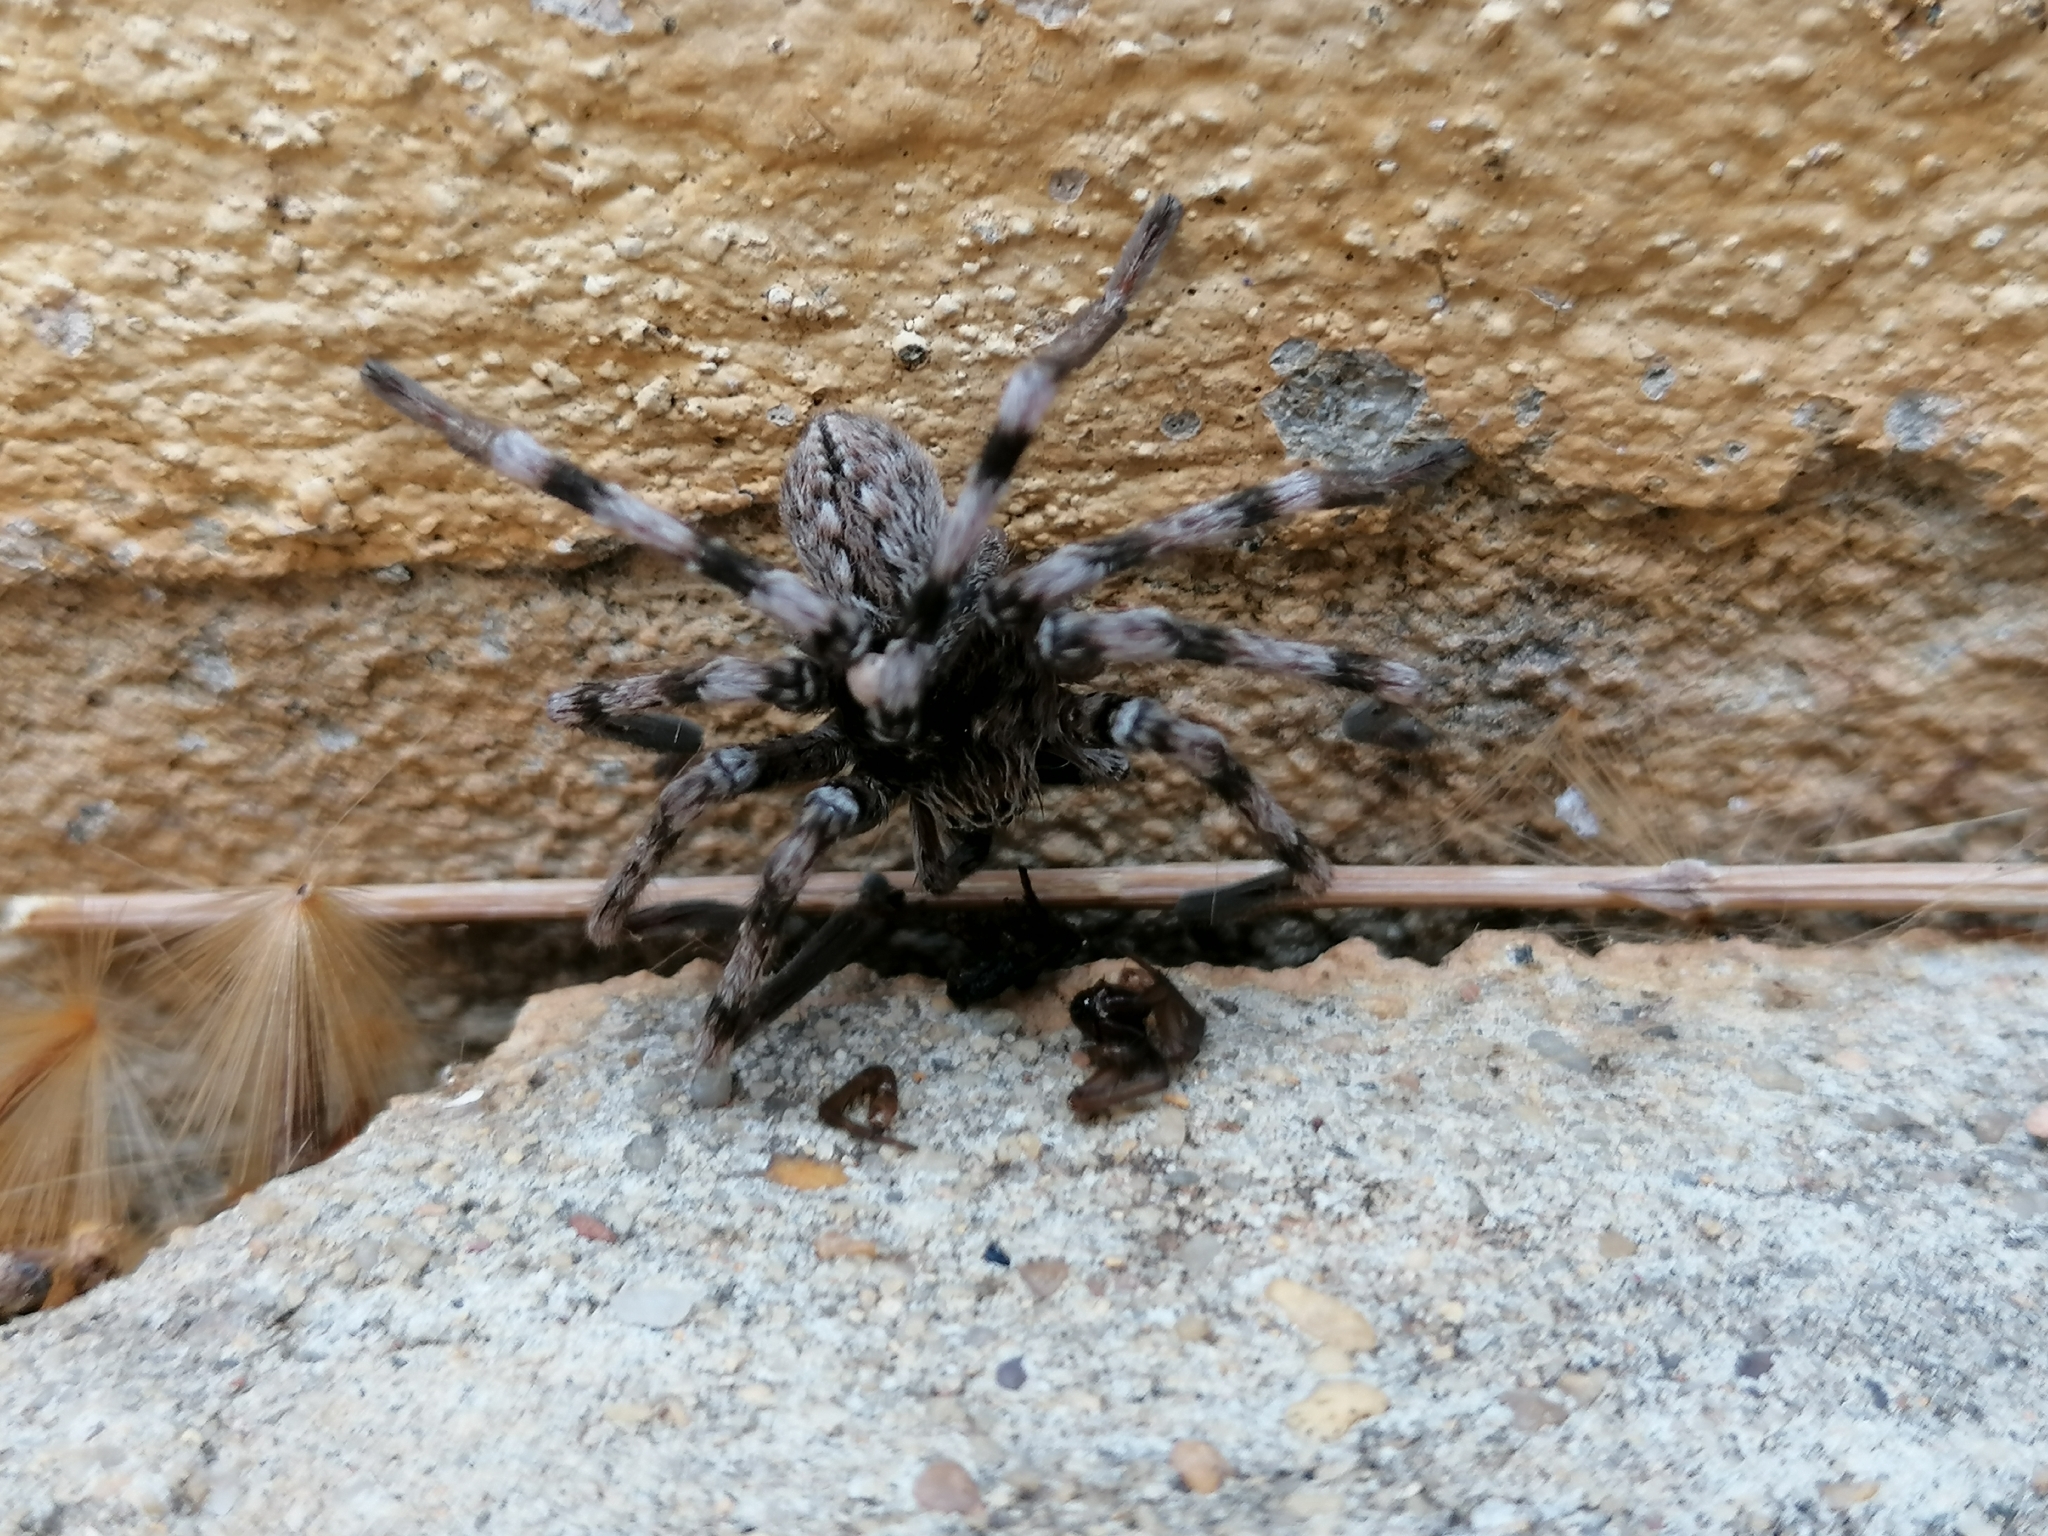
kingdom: Animalia
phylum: Arthropoda
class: Arachnida
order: Araneae
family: Sparassidae
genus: Eusparassus
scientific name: Eusparassus dufouri
